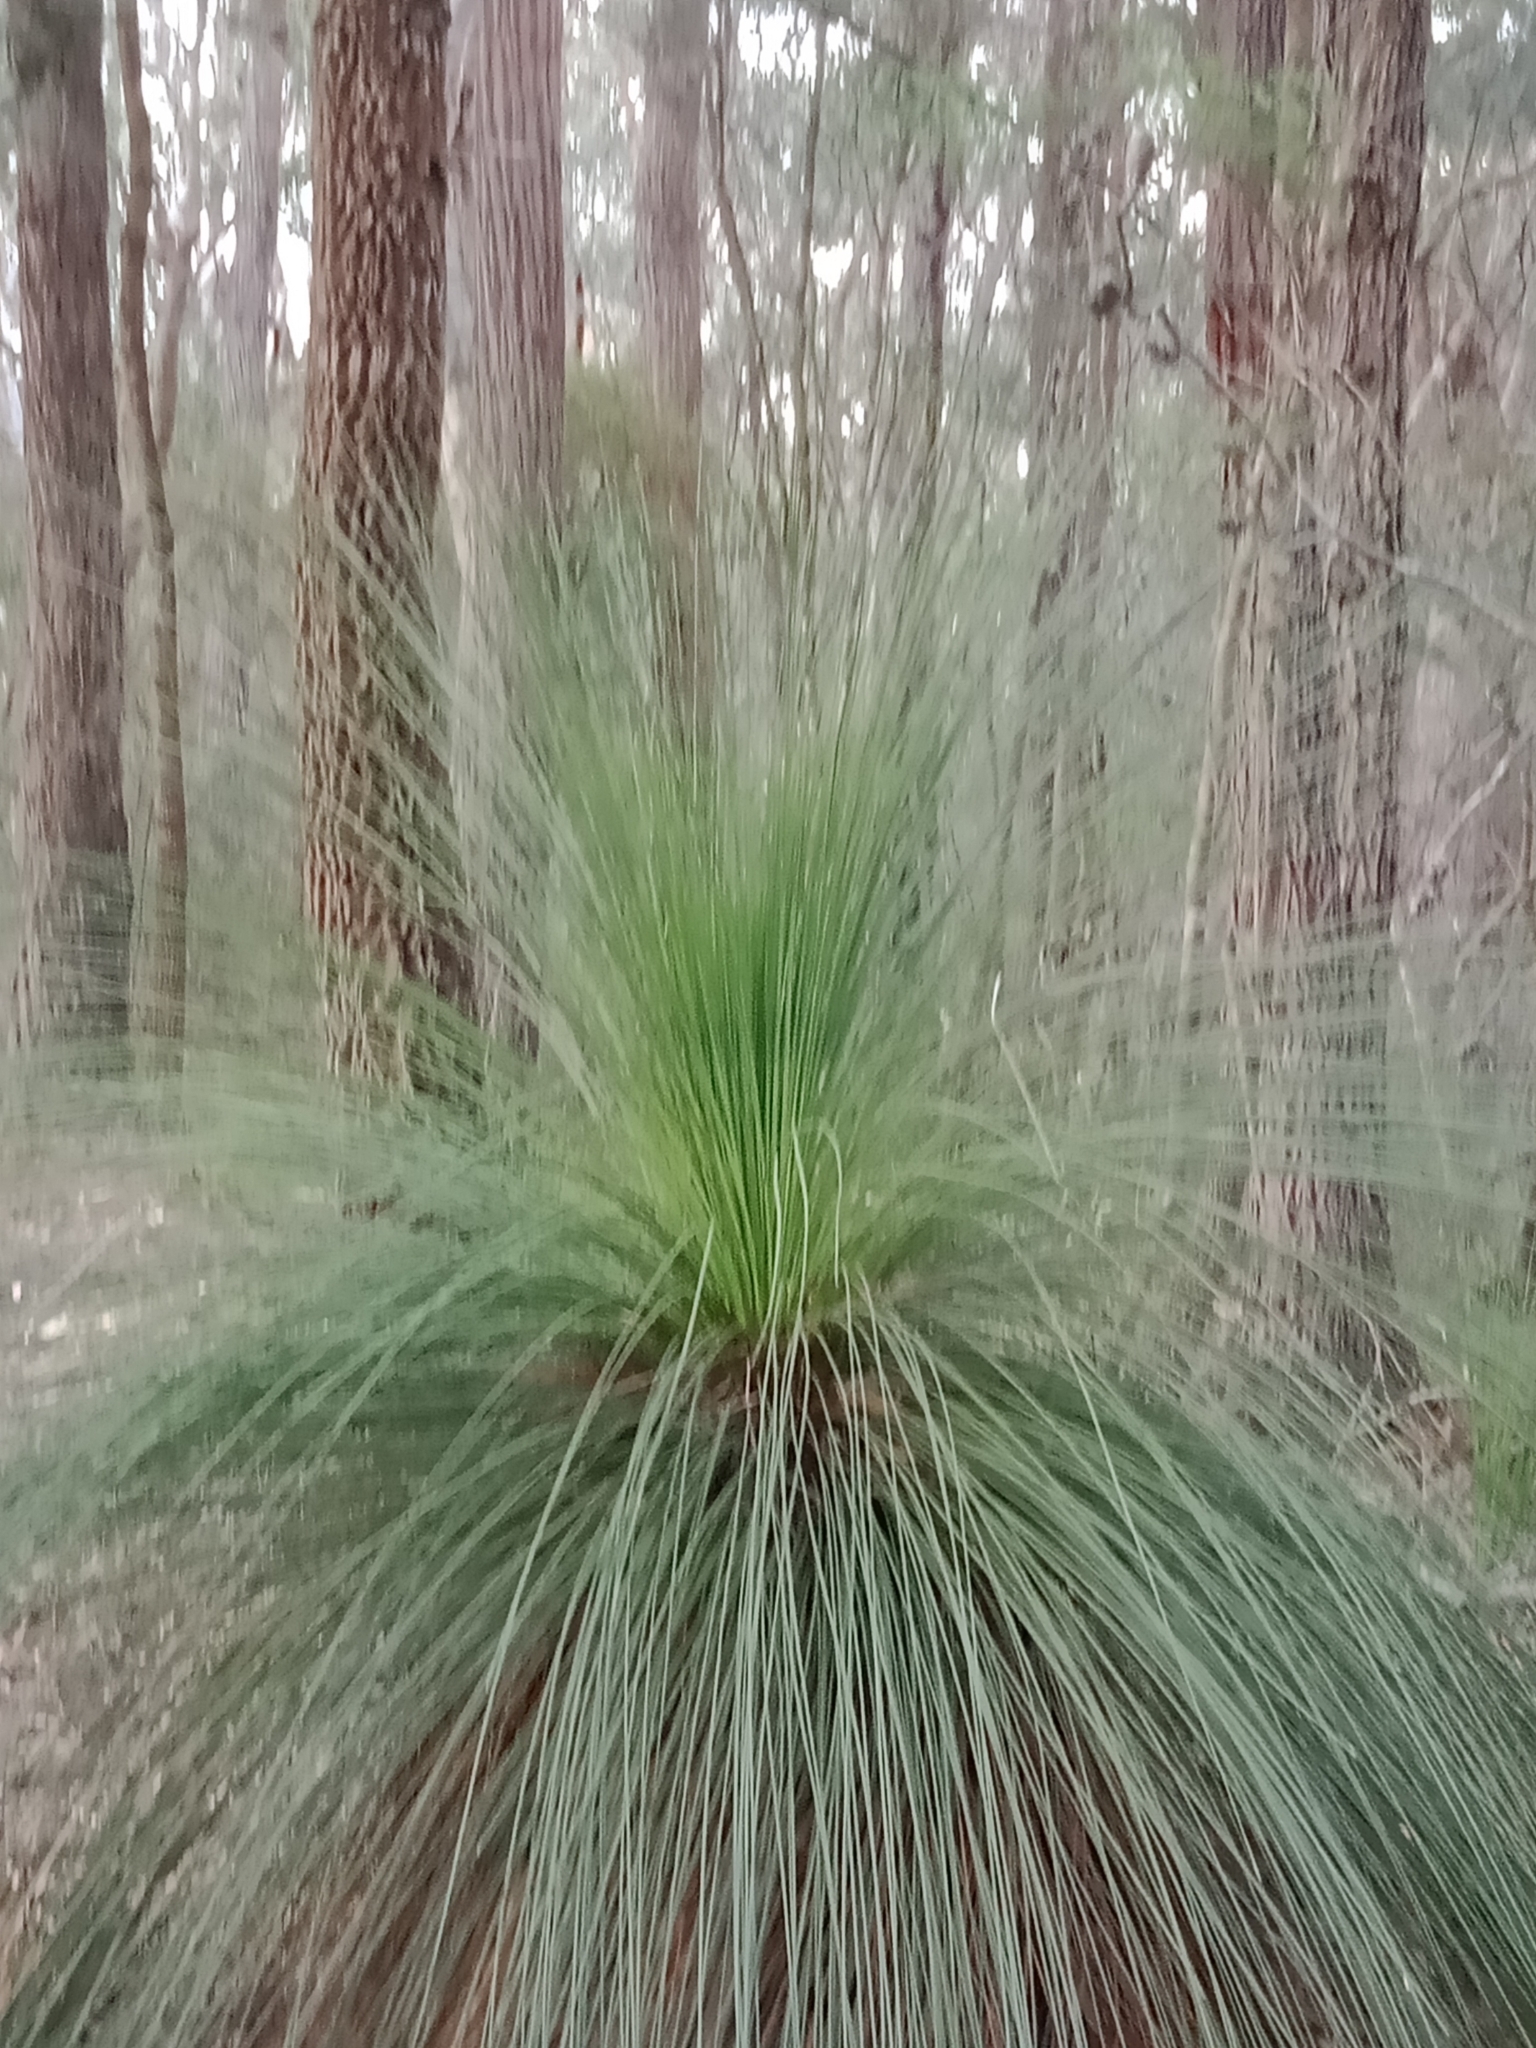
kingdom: Plantae
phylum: Tracheophyta
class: Liliopsida
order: Asparagales
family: Asphodelaceae
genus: Xanthorrhoea
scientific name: Xanthorrhoea australis
